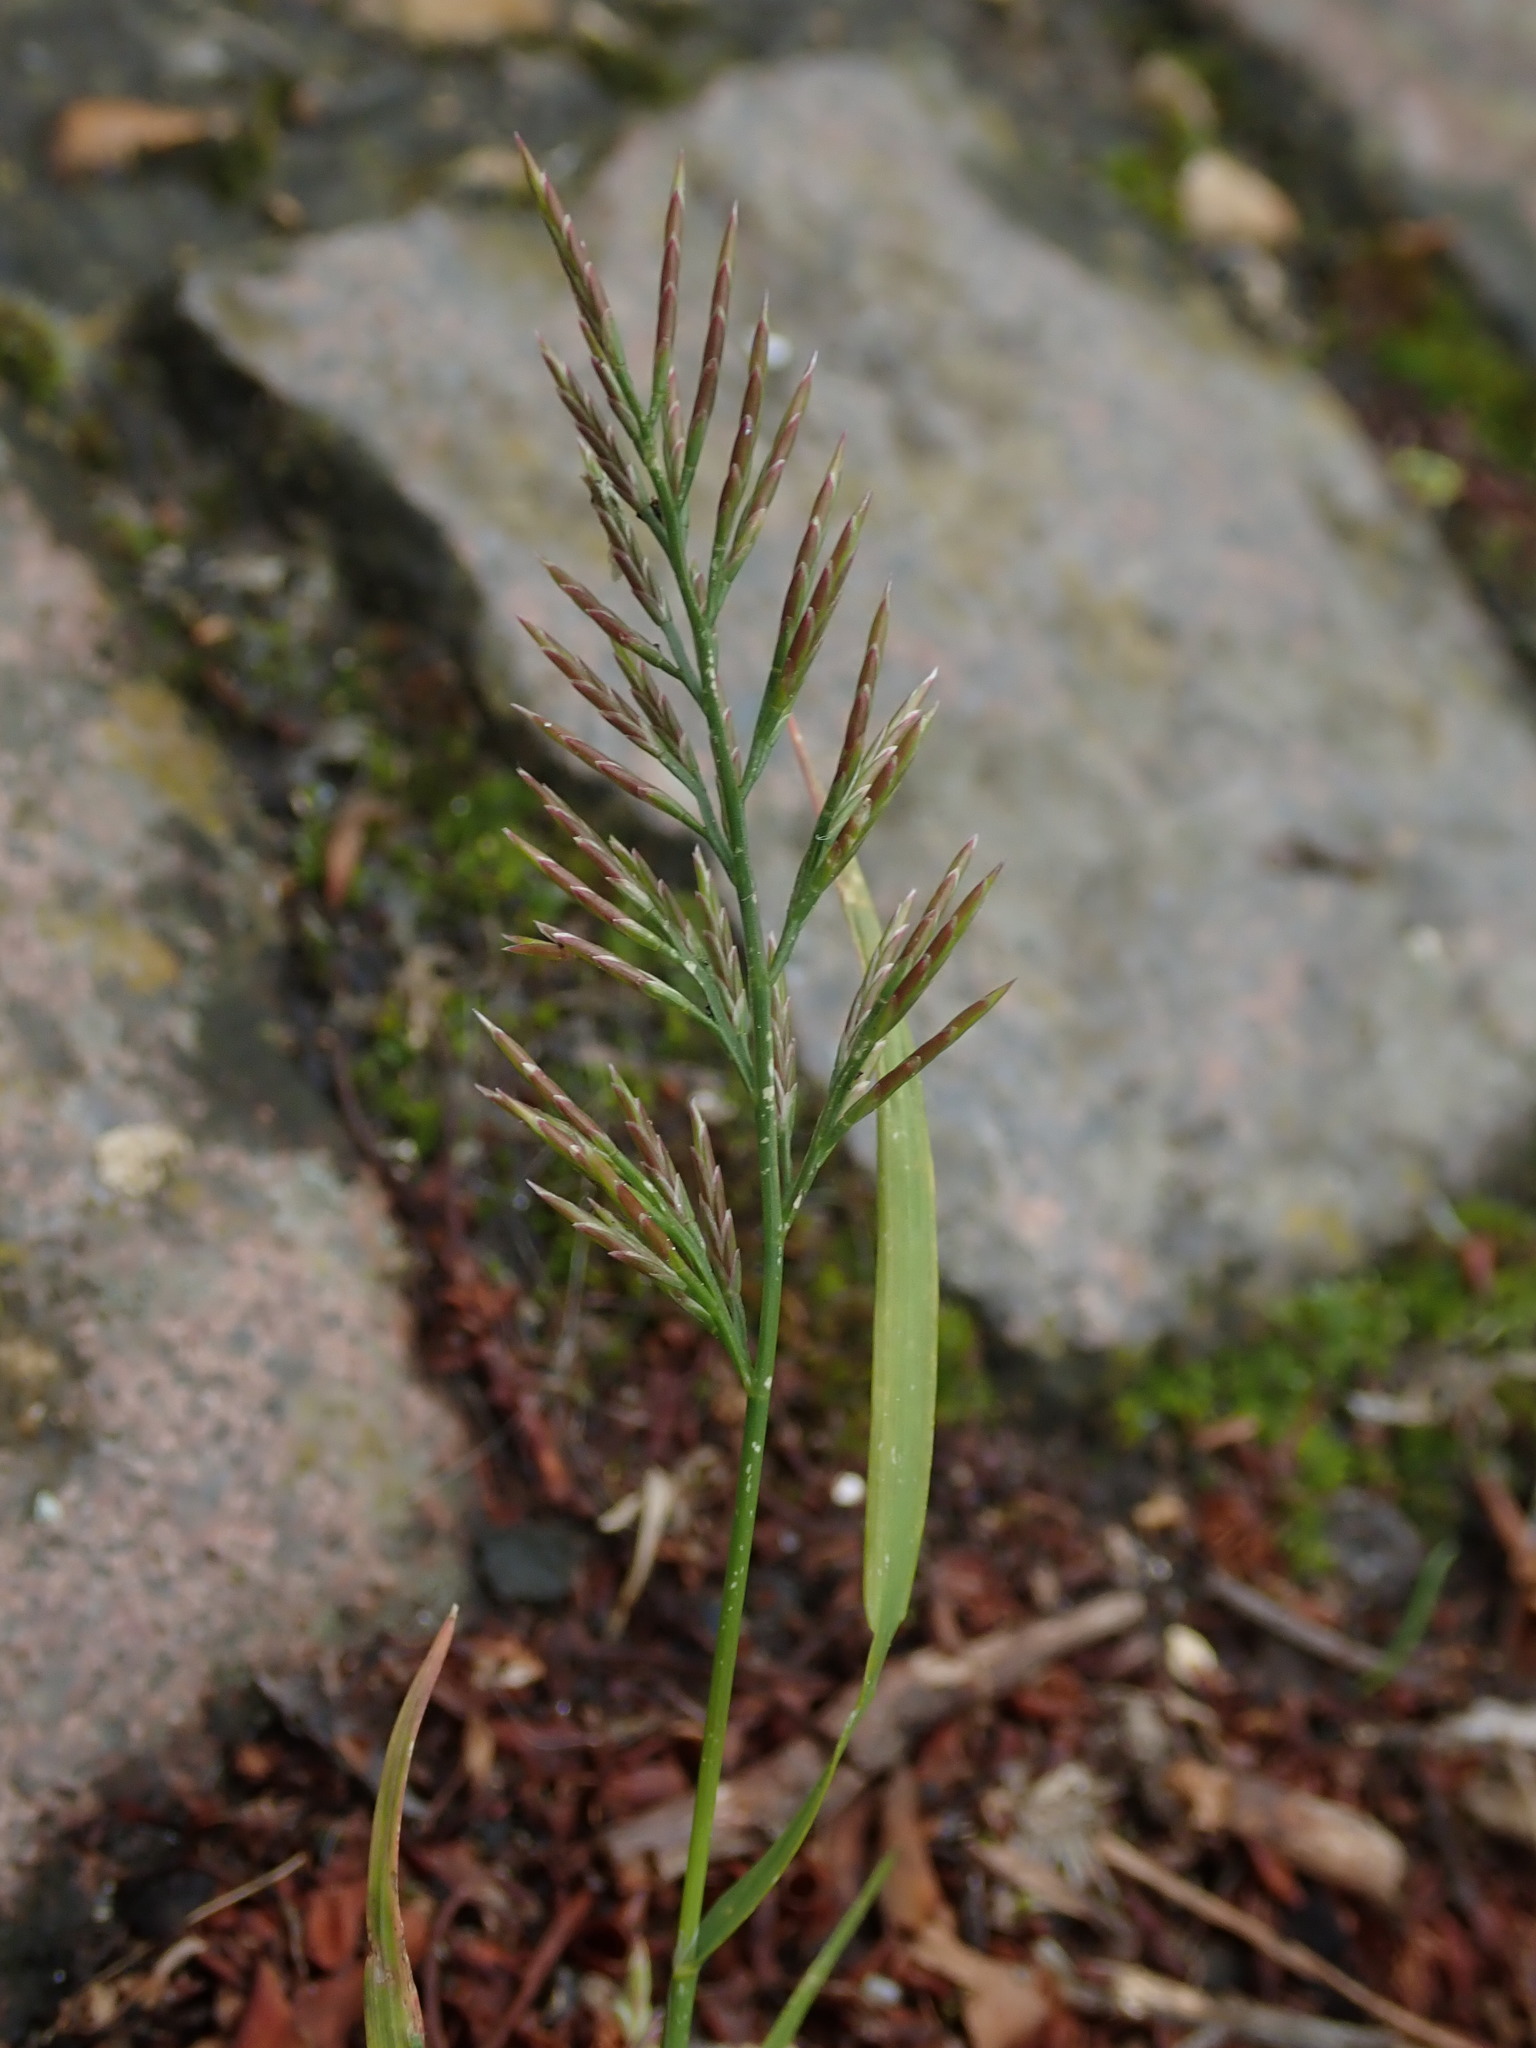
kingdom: Plantae
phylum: Tracheophyta
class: Liliopsida
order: Poales
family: Poaceae
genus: Catapodium
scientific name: Catapodium rigidum
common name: Fern-grass
